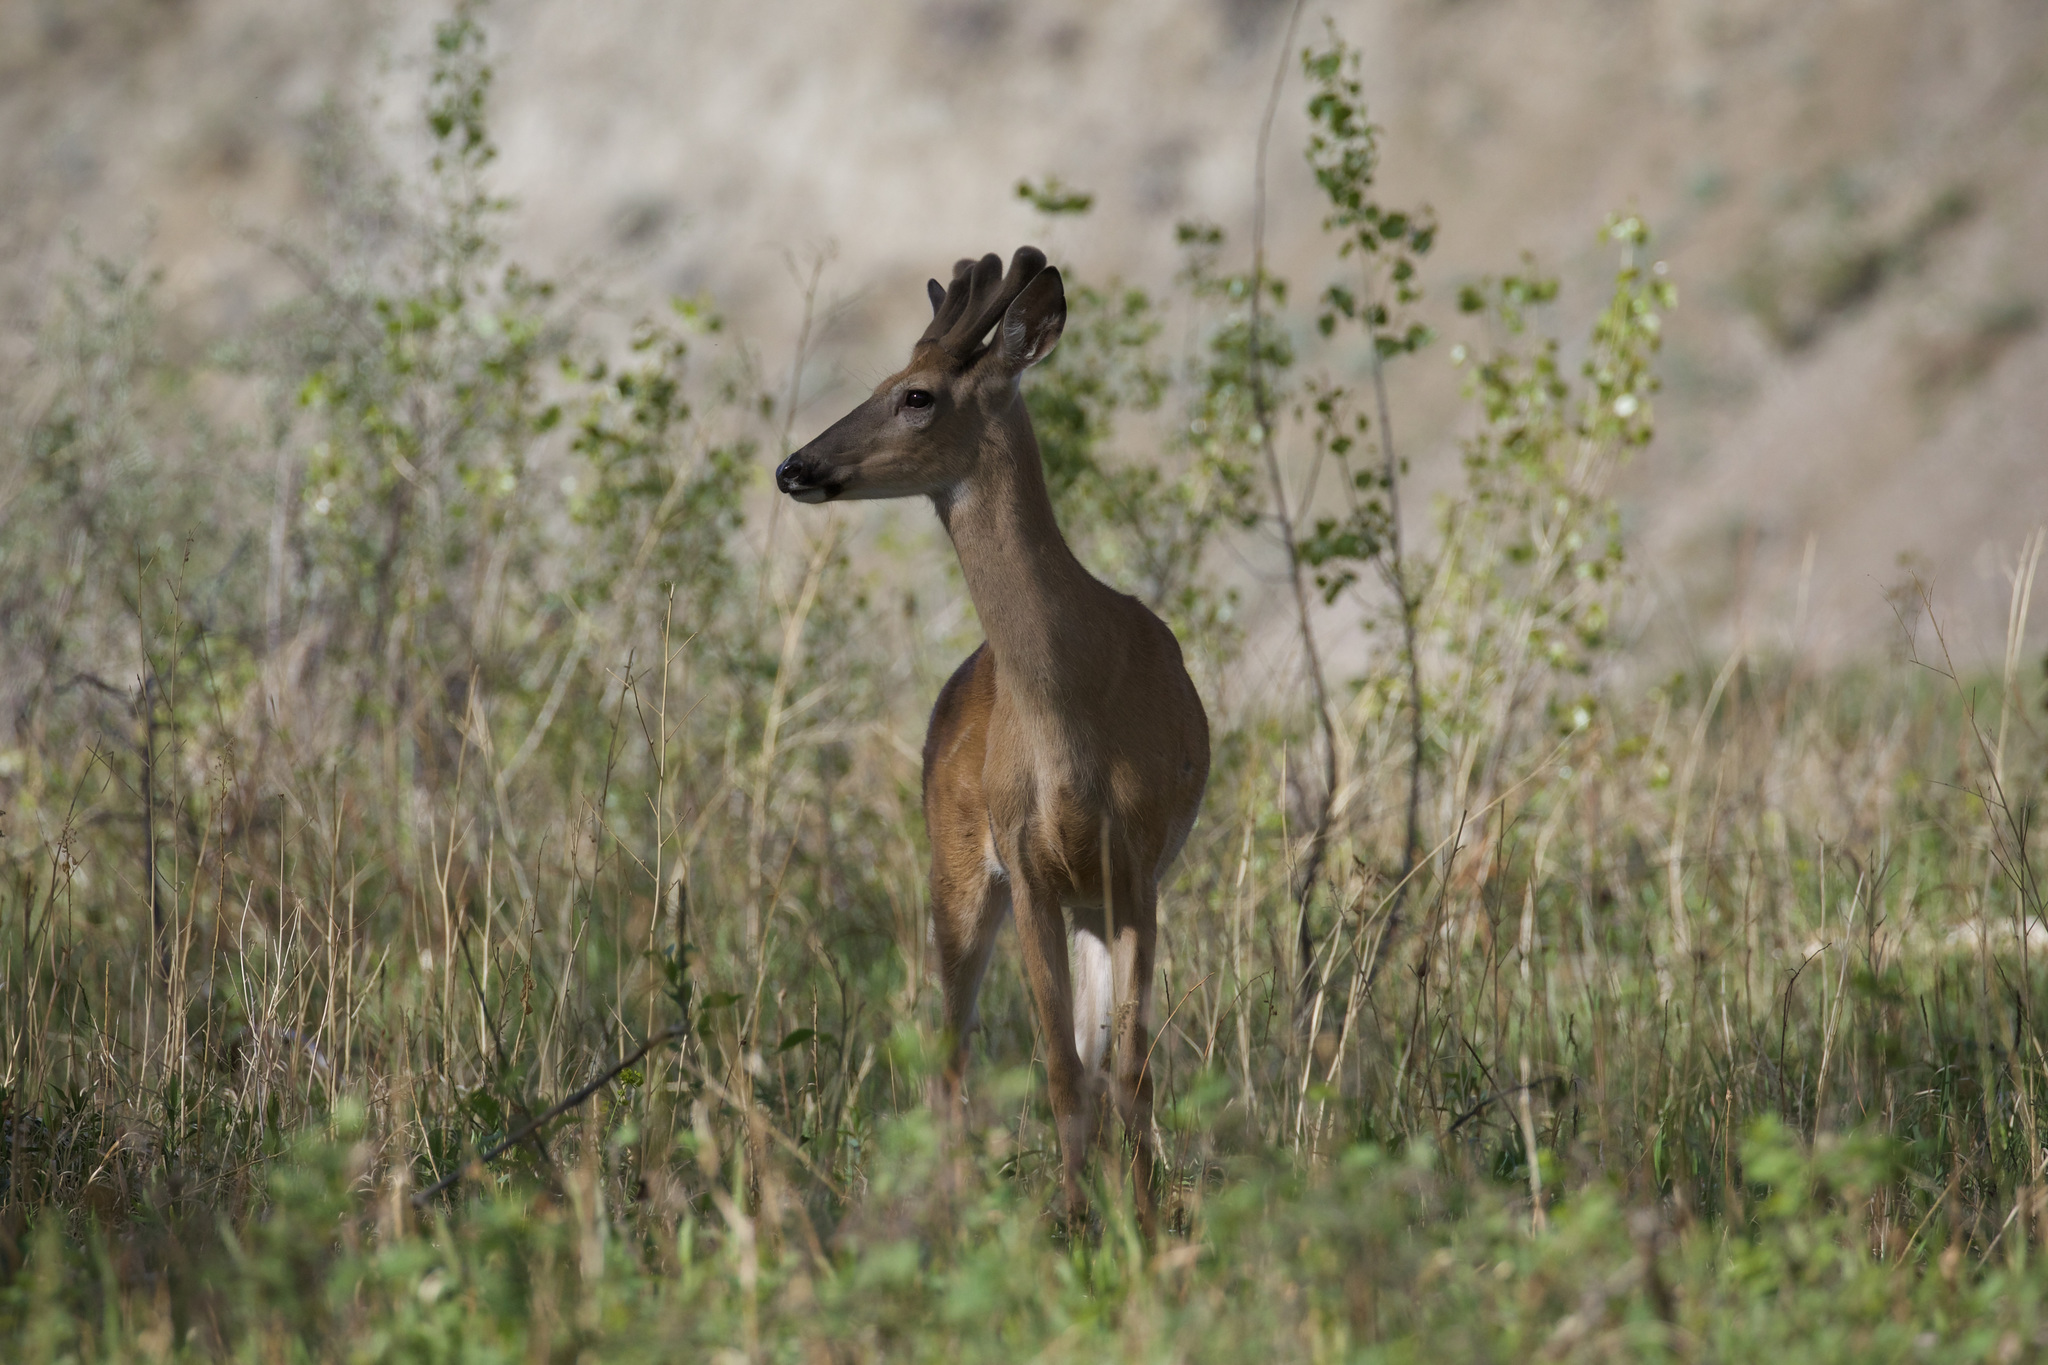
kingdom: Animalia
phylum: Chordata
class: Mammalia
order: Artiodactyla
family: Cervidae
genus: Odocoileus
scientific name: Odocoileus virginianus
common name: White-tailed deer
